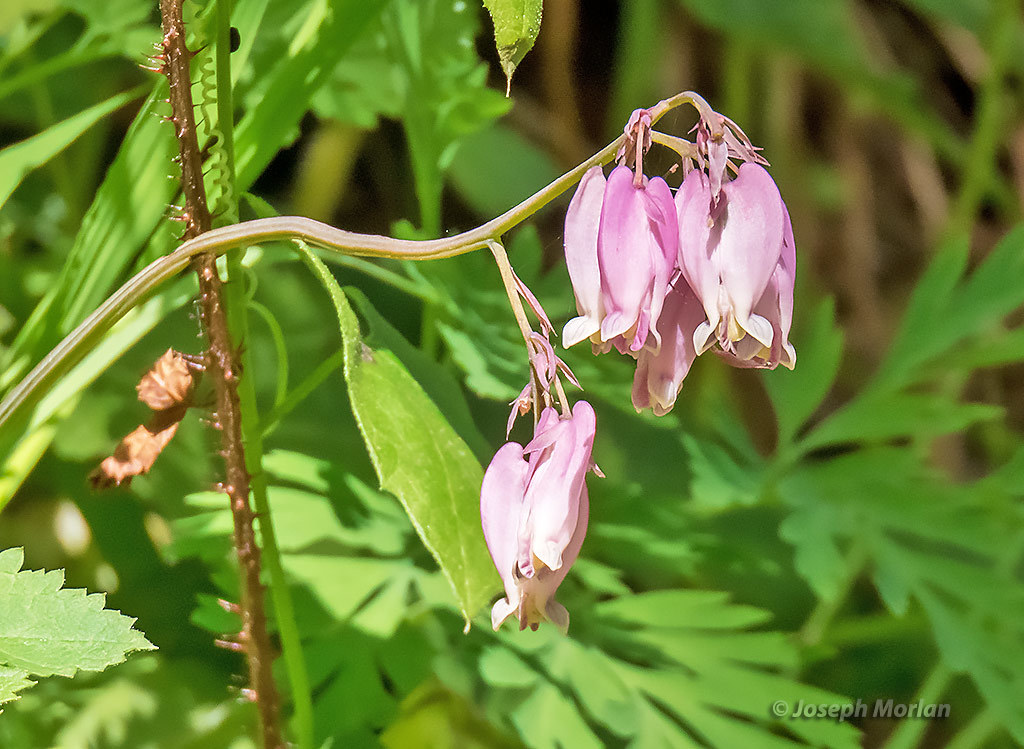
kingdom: Plantae
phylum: Tracheophyta
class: Magnoliopsida
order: Ranunculales
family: Papaveraceae
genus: Dicentra
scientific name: Dicentra formosa
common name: Bleeding-heart
